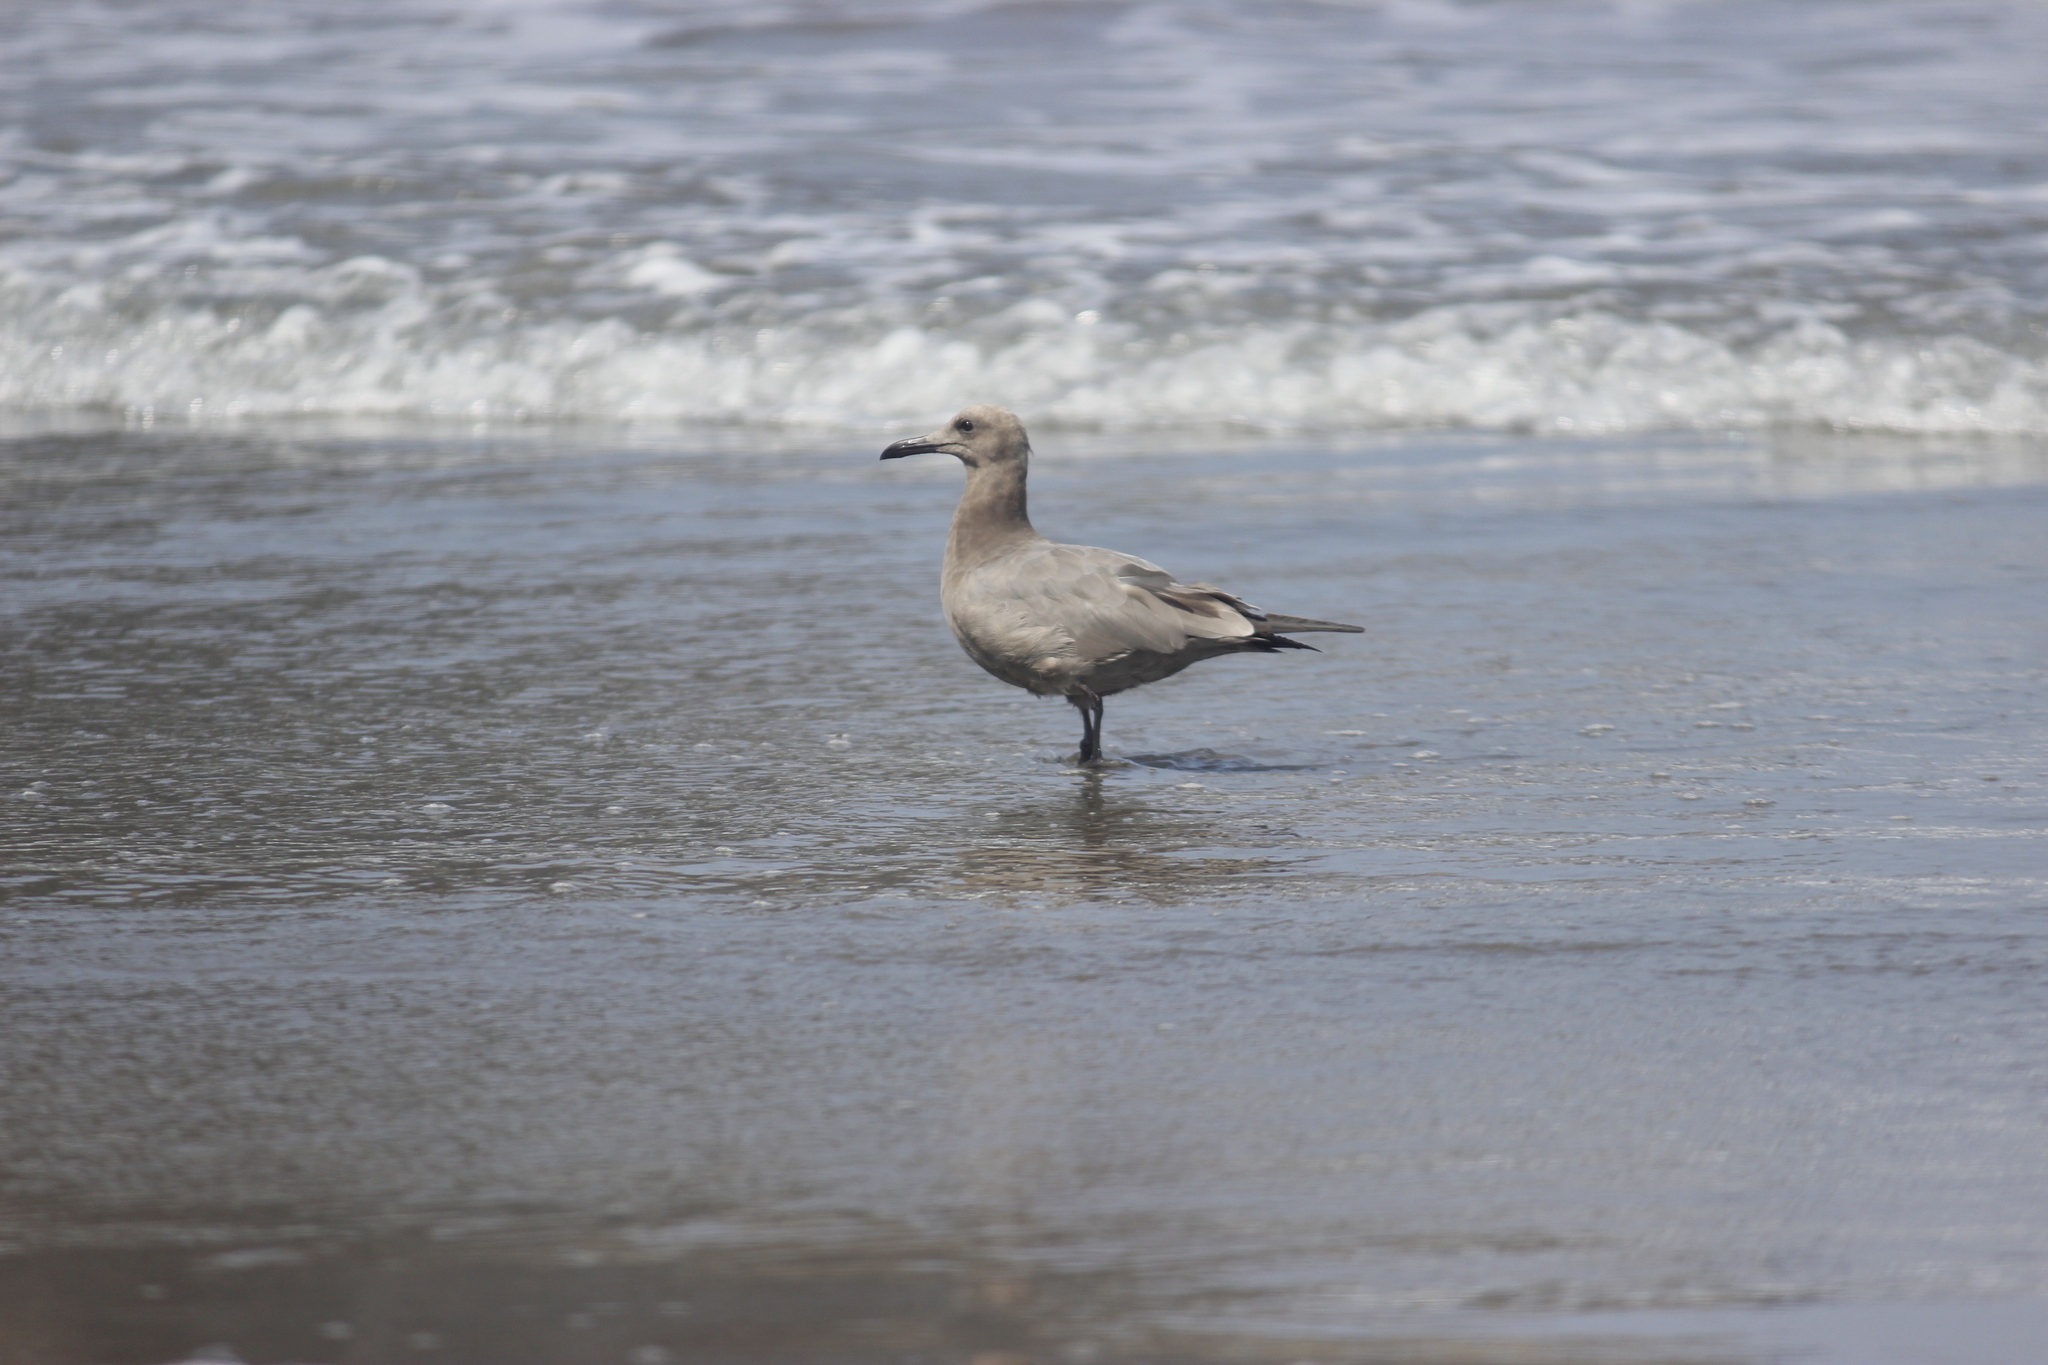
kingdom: Animalia
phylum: Chordata
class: Aves
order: Charadriiformes
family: Laridae
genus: Leucophaeus
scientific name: Leucophaeus modestus
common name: Gray gull
